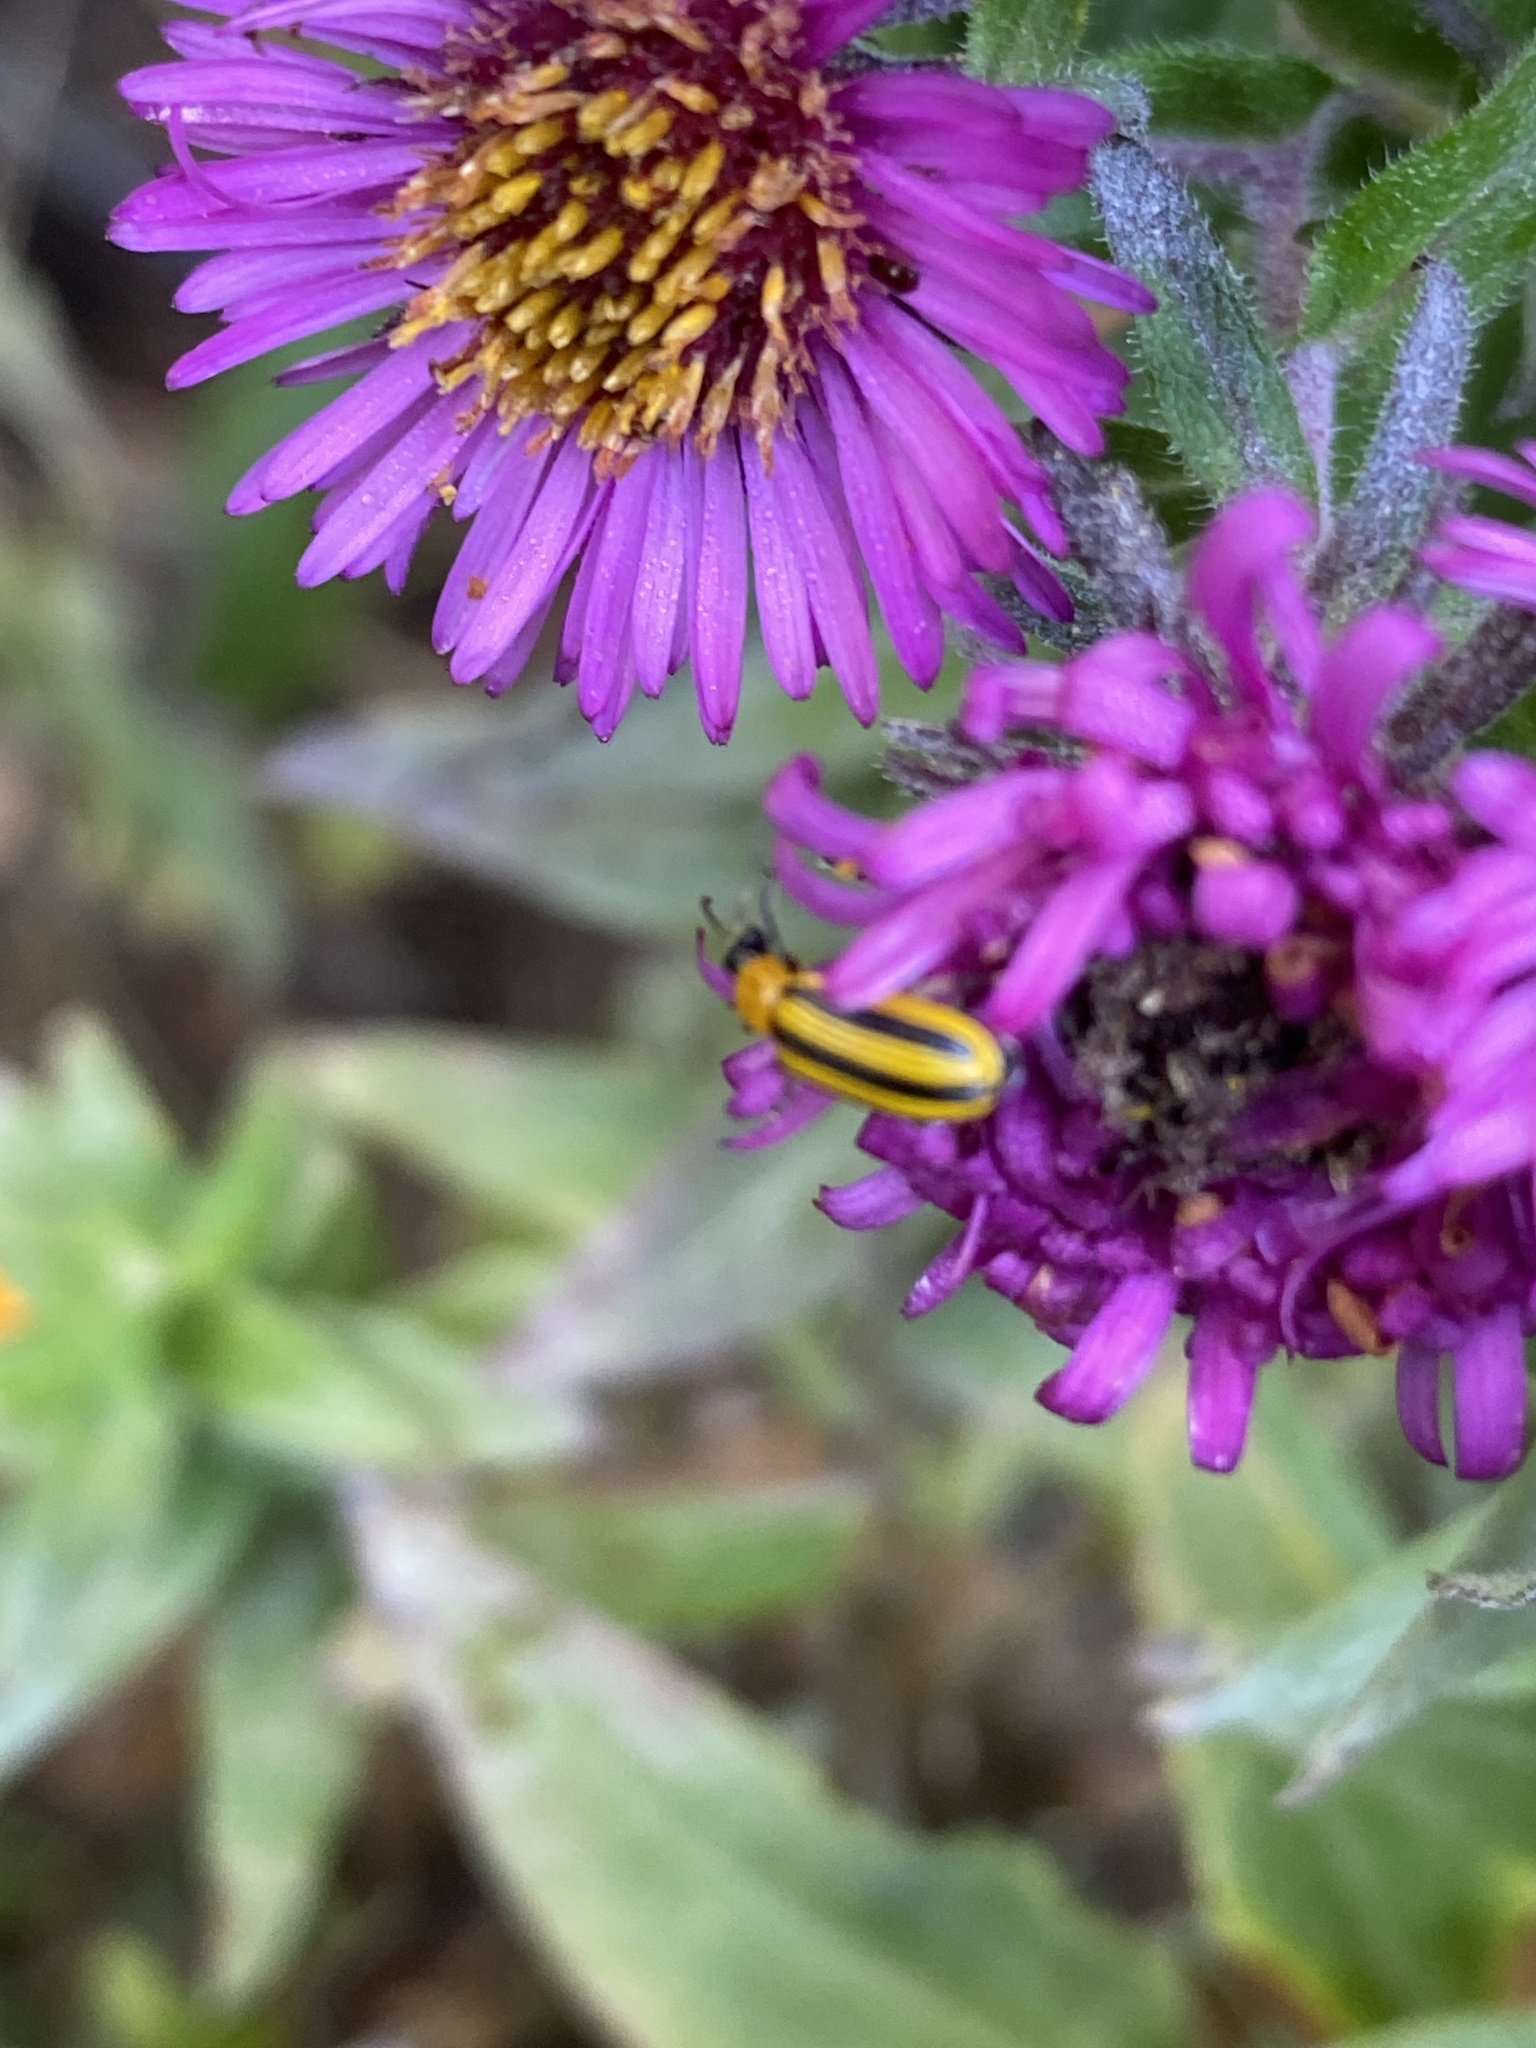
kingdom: Animalia
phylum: Arthropoda
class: Insecta
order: Coleoptera
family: Chrysomelidae
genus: Acalymma
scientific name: Acalymma vittatum
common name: Striped cucumber beetle
